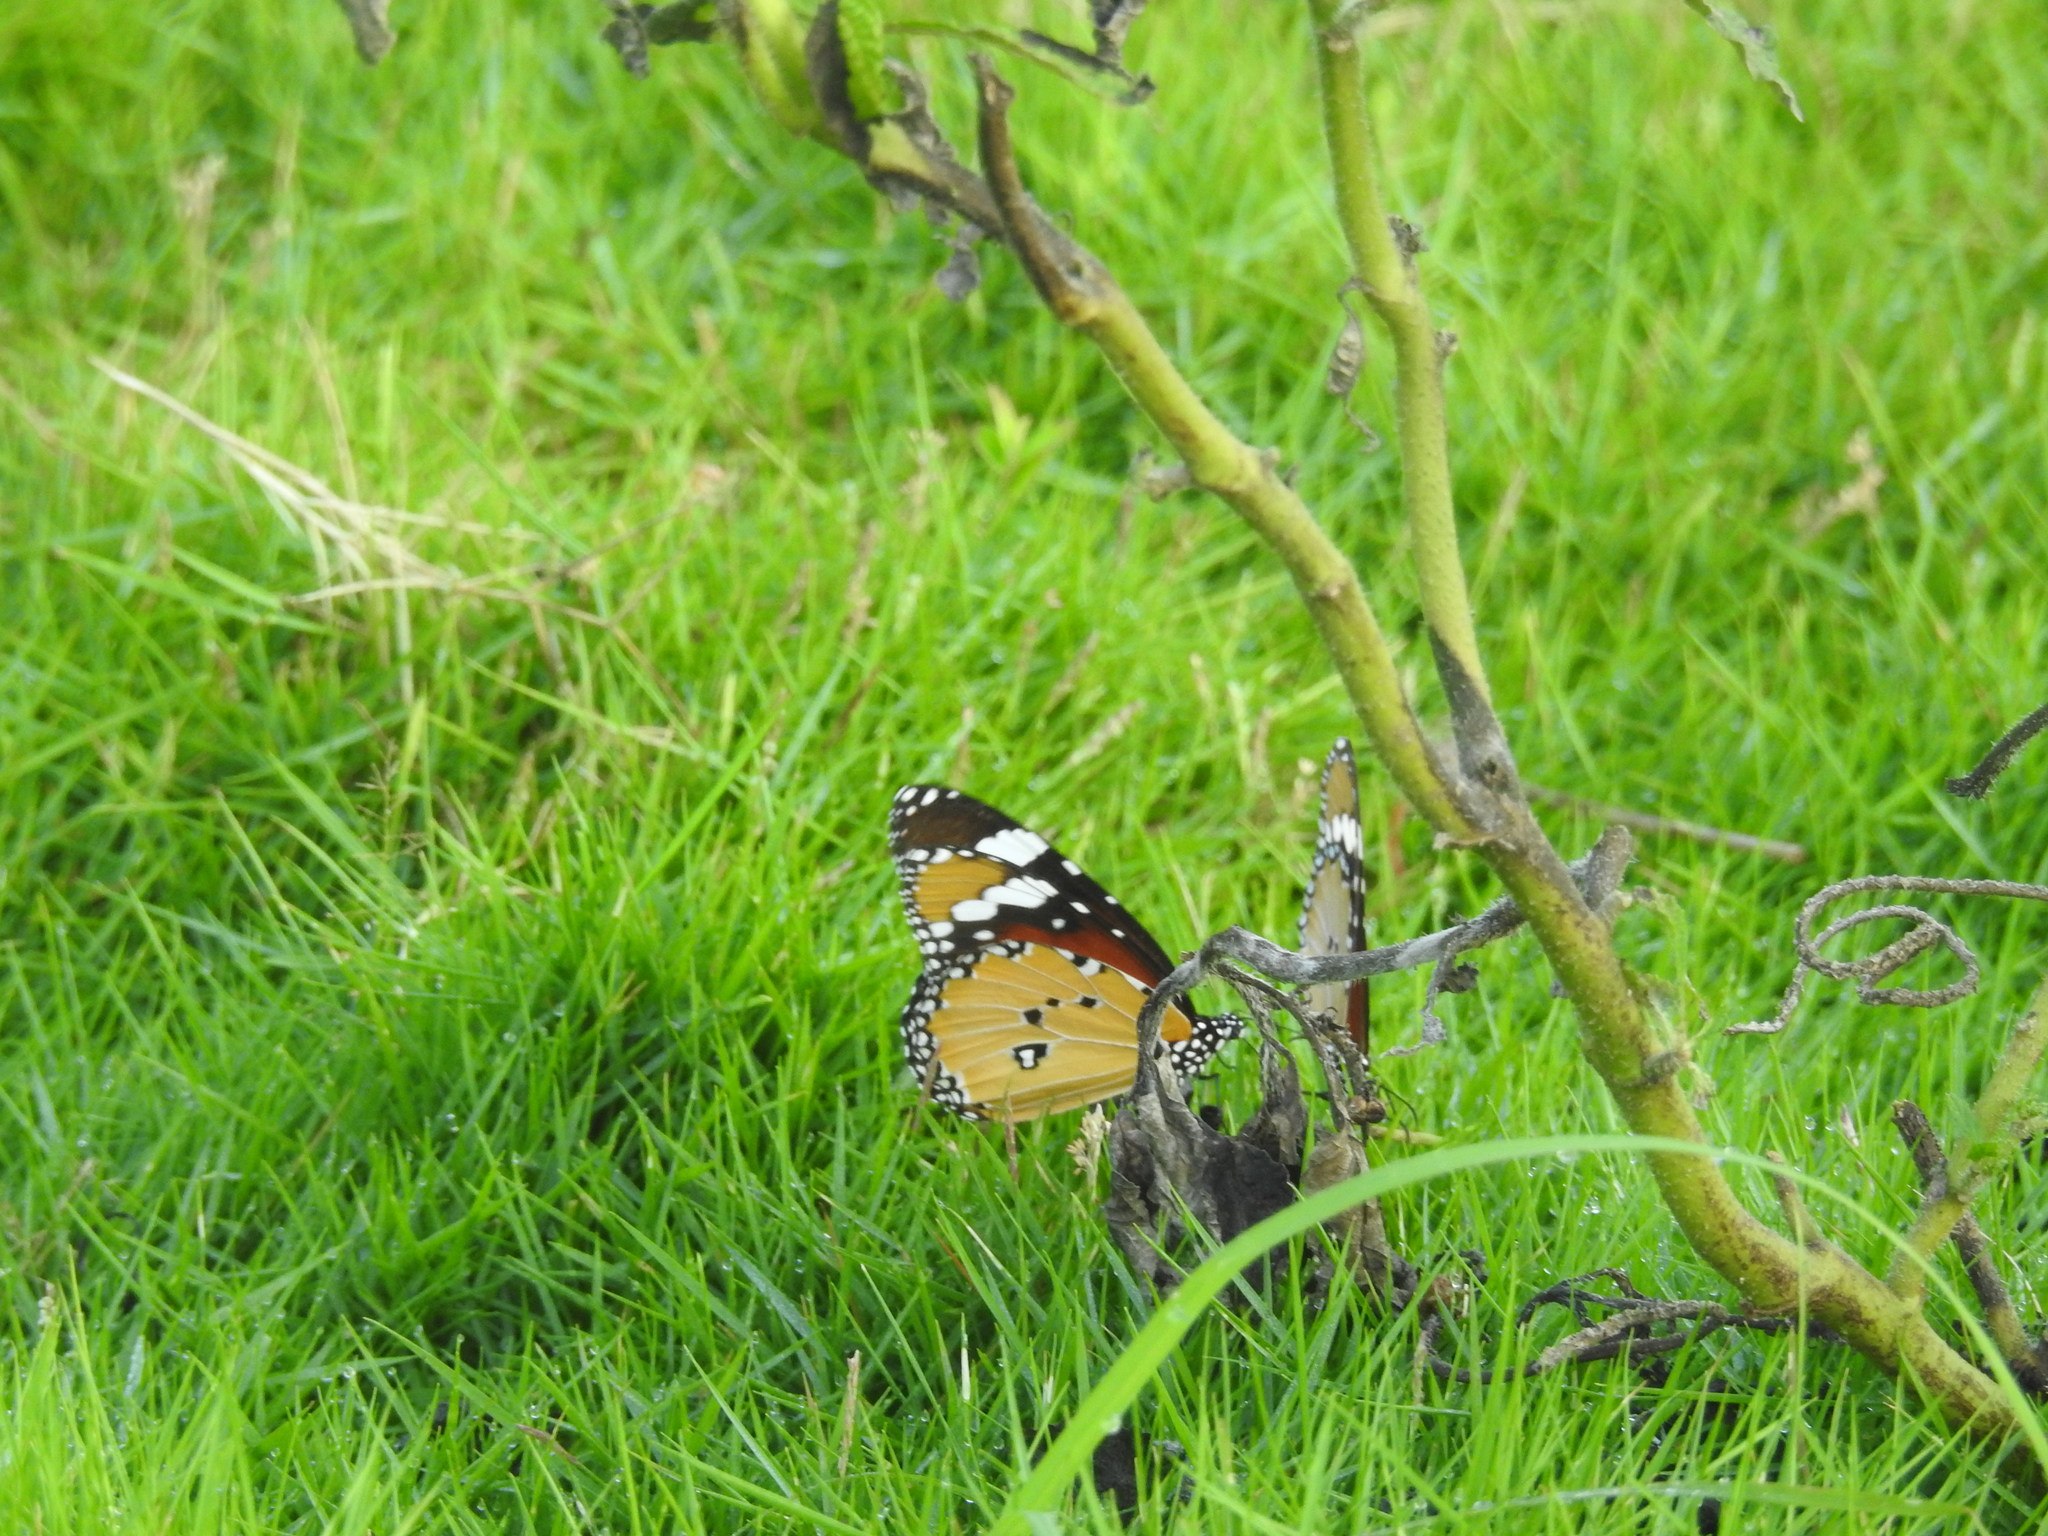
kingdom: Animalia
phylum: Arthropoda
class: Insecta
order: Lepidoptera
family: Nymphalidae
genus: Danaus
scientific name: Danaus chrysippus
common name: Plain tiger
